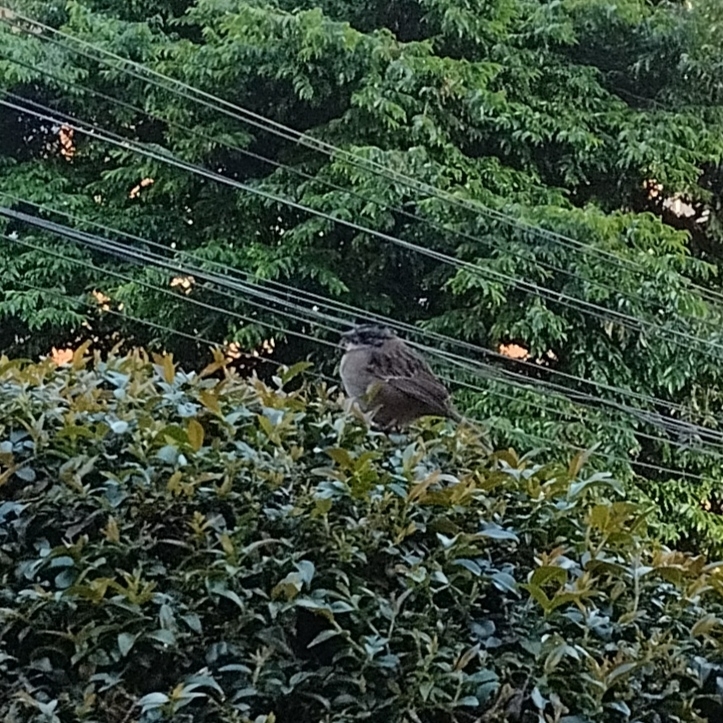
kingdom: Animalia
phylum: Chordata
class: Aves
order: Passeriformes
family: Passerellidae
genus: Zonotrichia
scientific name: Zonotrichia capensis
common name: Rufous-collared sparrow
